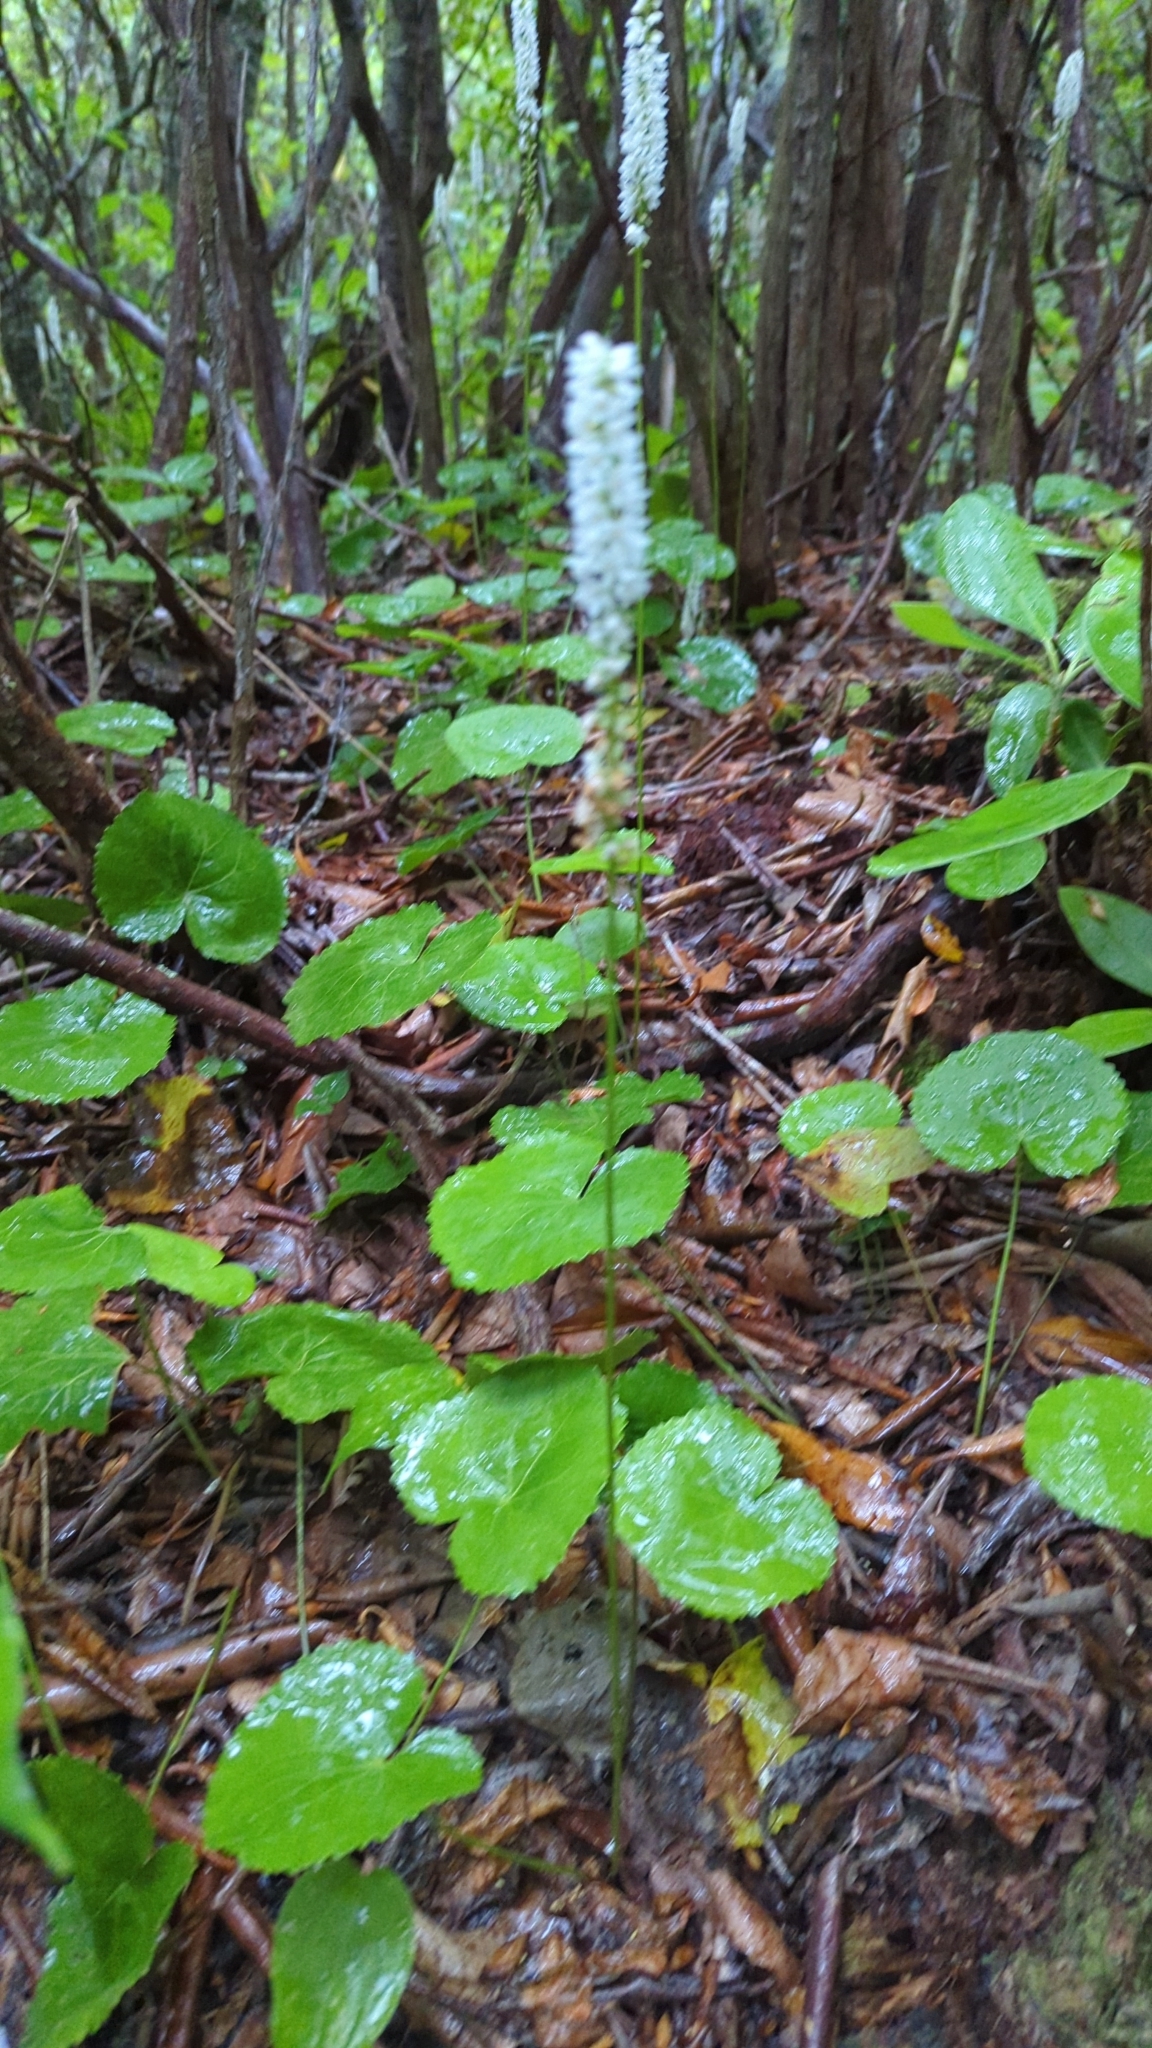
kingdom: Plantae
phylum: Tracheophyta
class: Magnoliopsida
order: Ericales
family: Diapensiaceae
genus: Galax
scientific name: Galax urceolata
